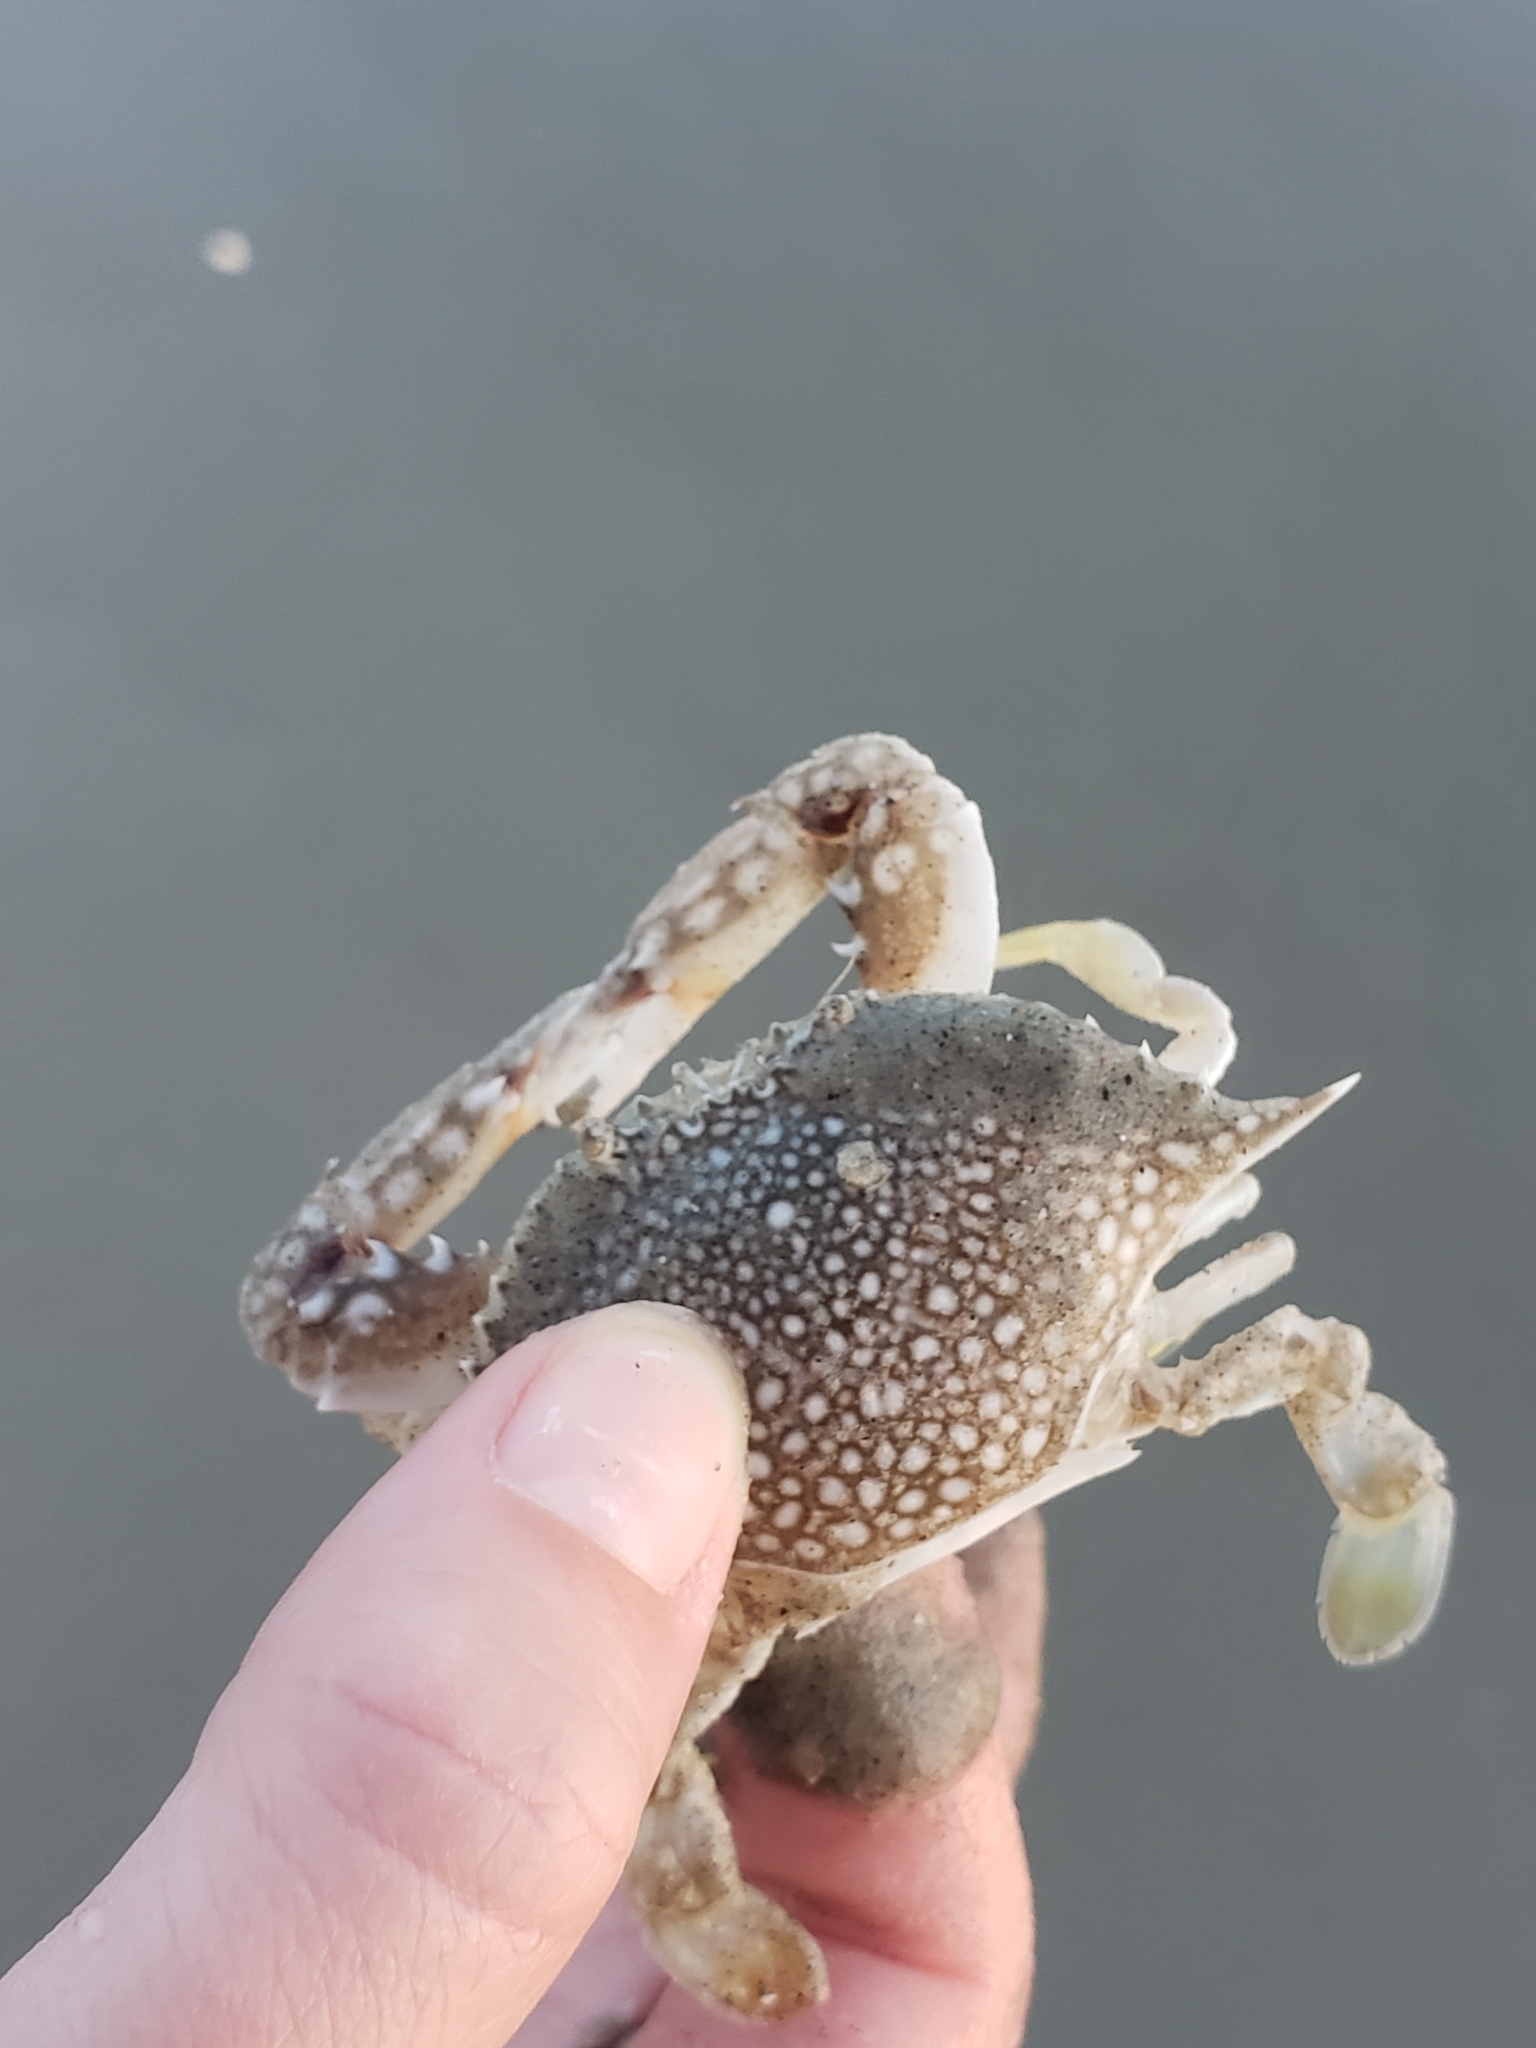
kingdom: Animalia
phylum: Arthropoda
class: Malacostraca
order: Decapoda
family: Portunidae
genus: Arenaeus
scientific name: Arenaeus cribrarius
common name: Speckled crab
